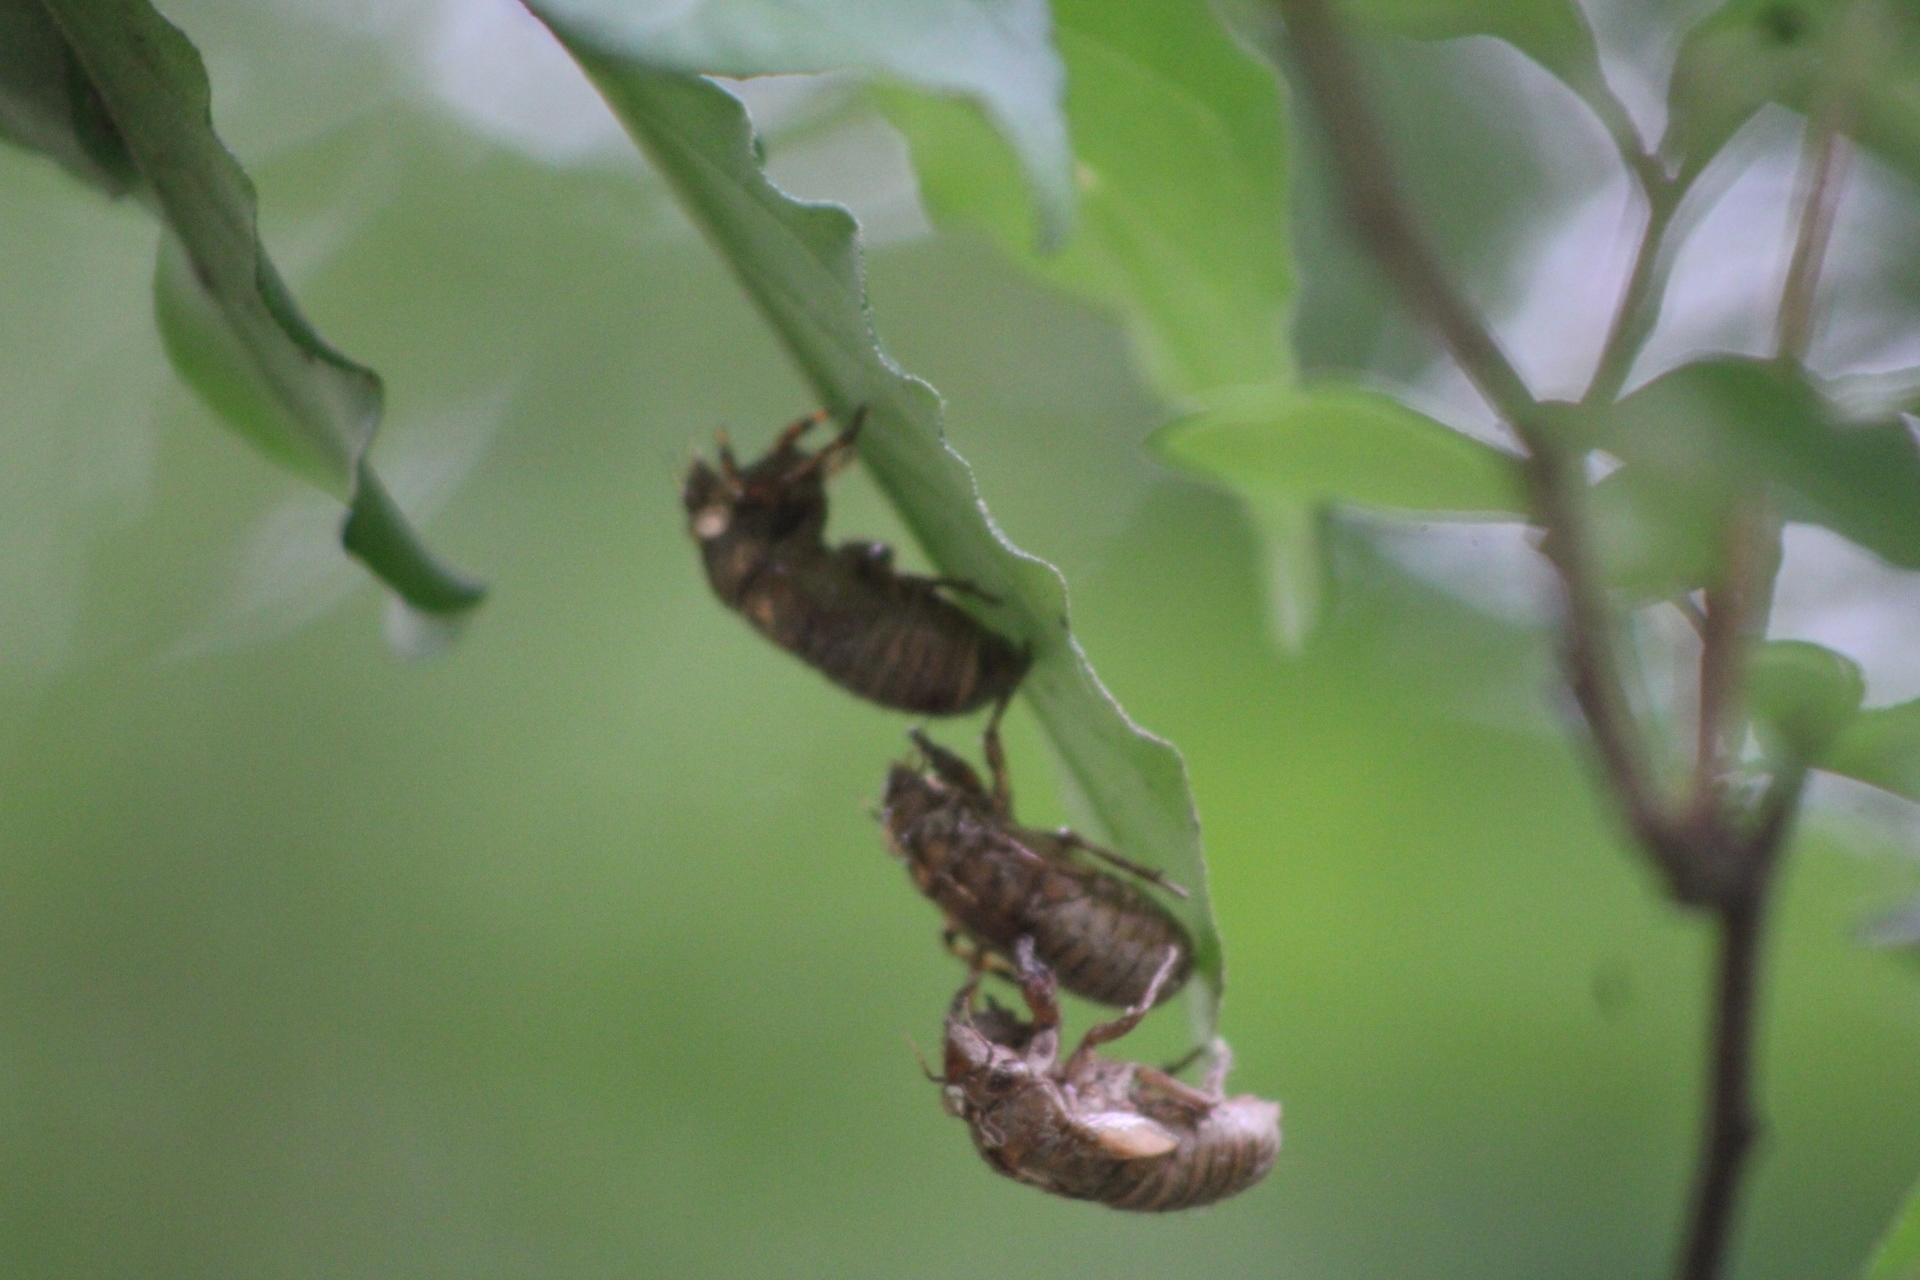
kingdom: Animalia
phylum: Arthropoda
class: Insecta
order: Hemiptera
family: Cicadidae
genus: Magicicada
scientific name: Magicicada
